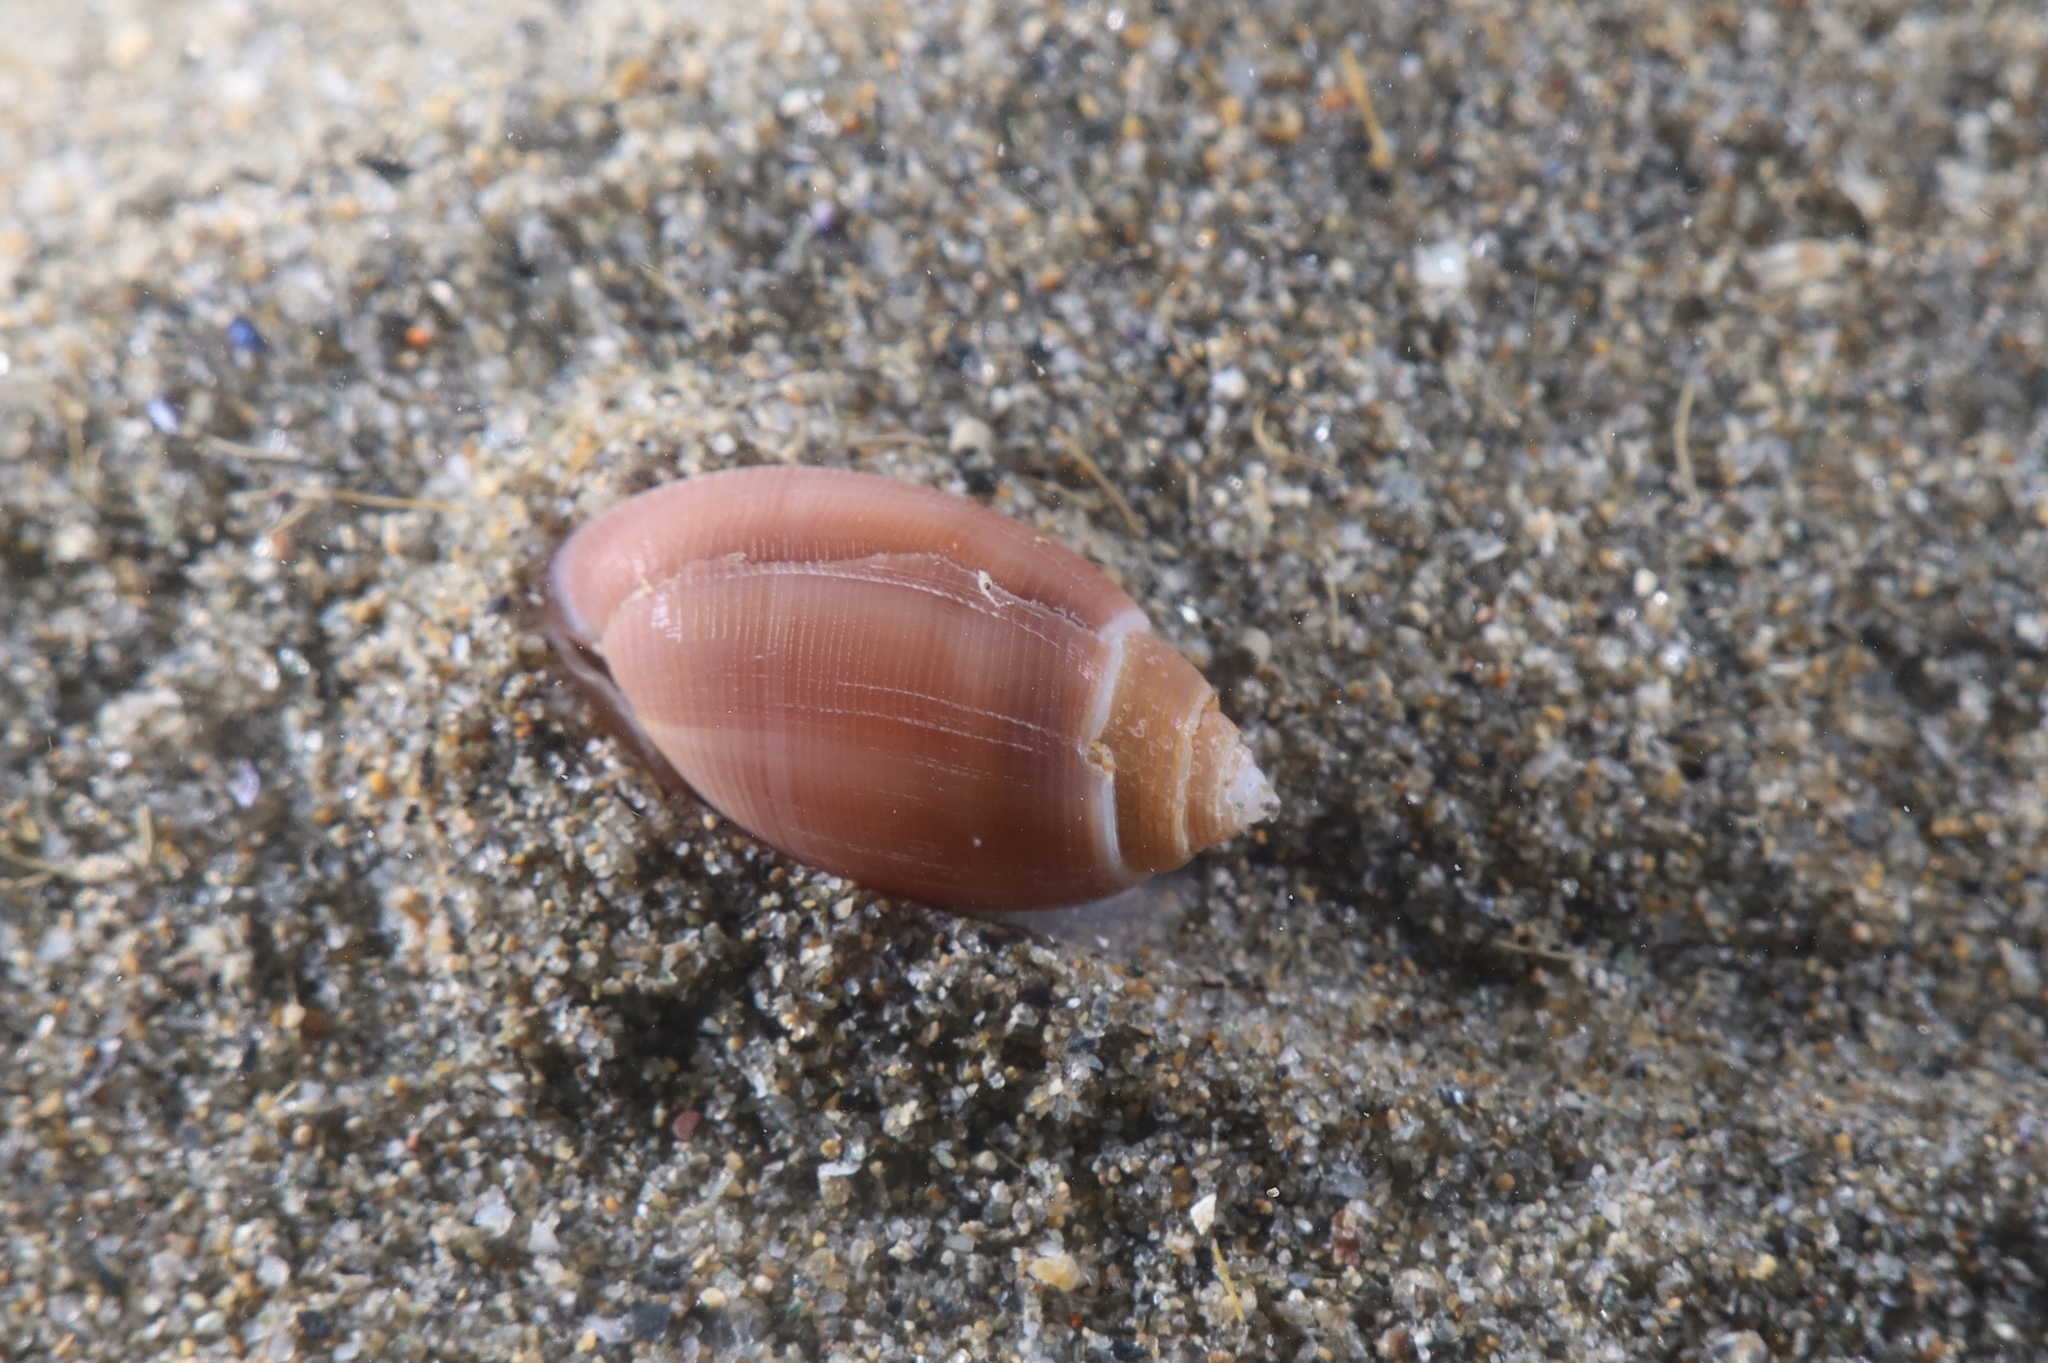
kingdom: Animalia
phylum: Mollusca
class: Gastropoda
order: Cephalaspidea
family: Acteonidae
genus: Acteon
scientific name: Acteon tornatilis
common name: European acteon
